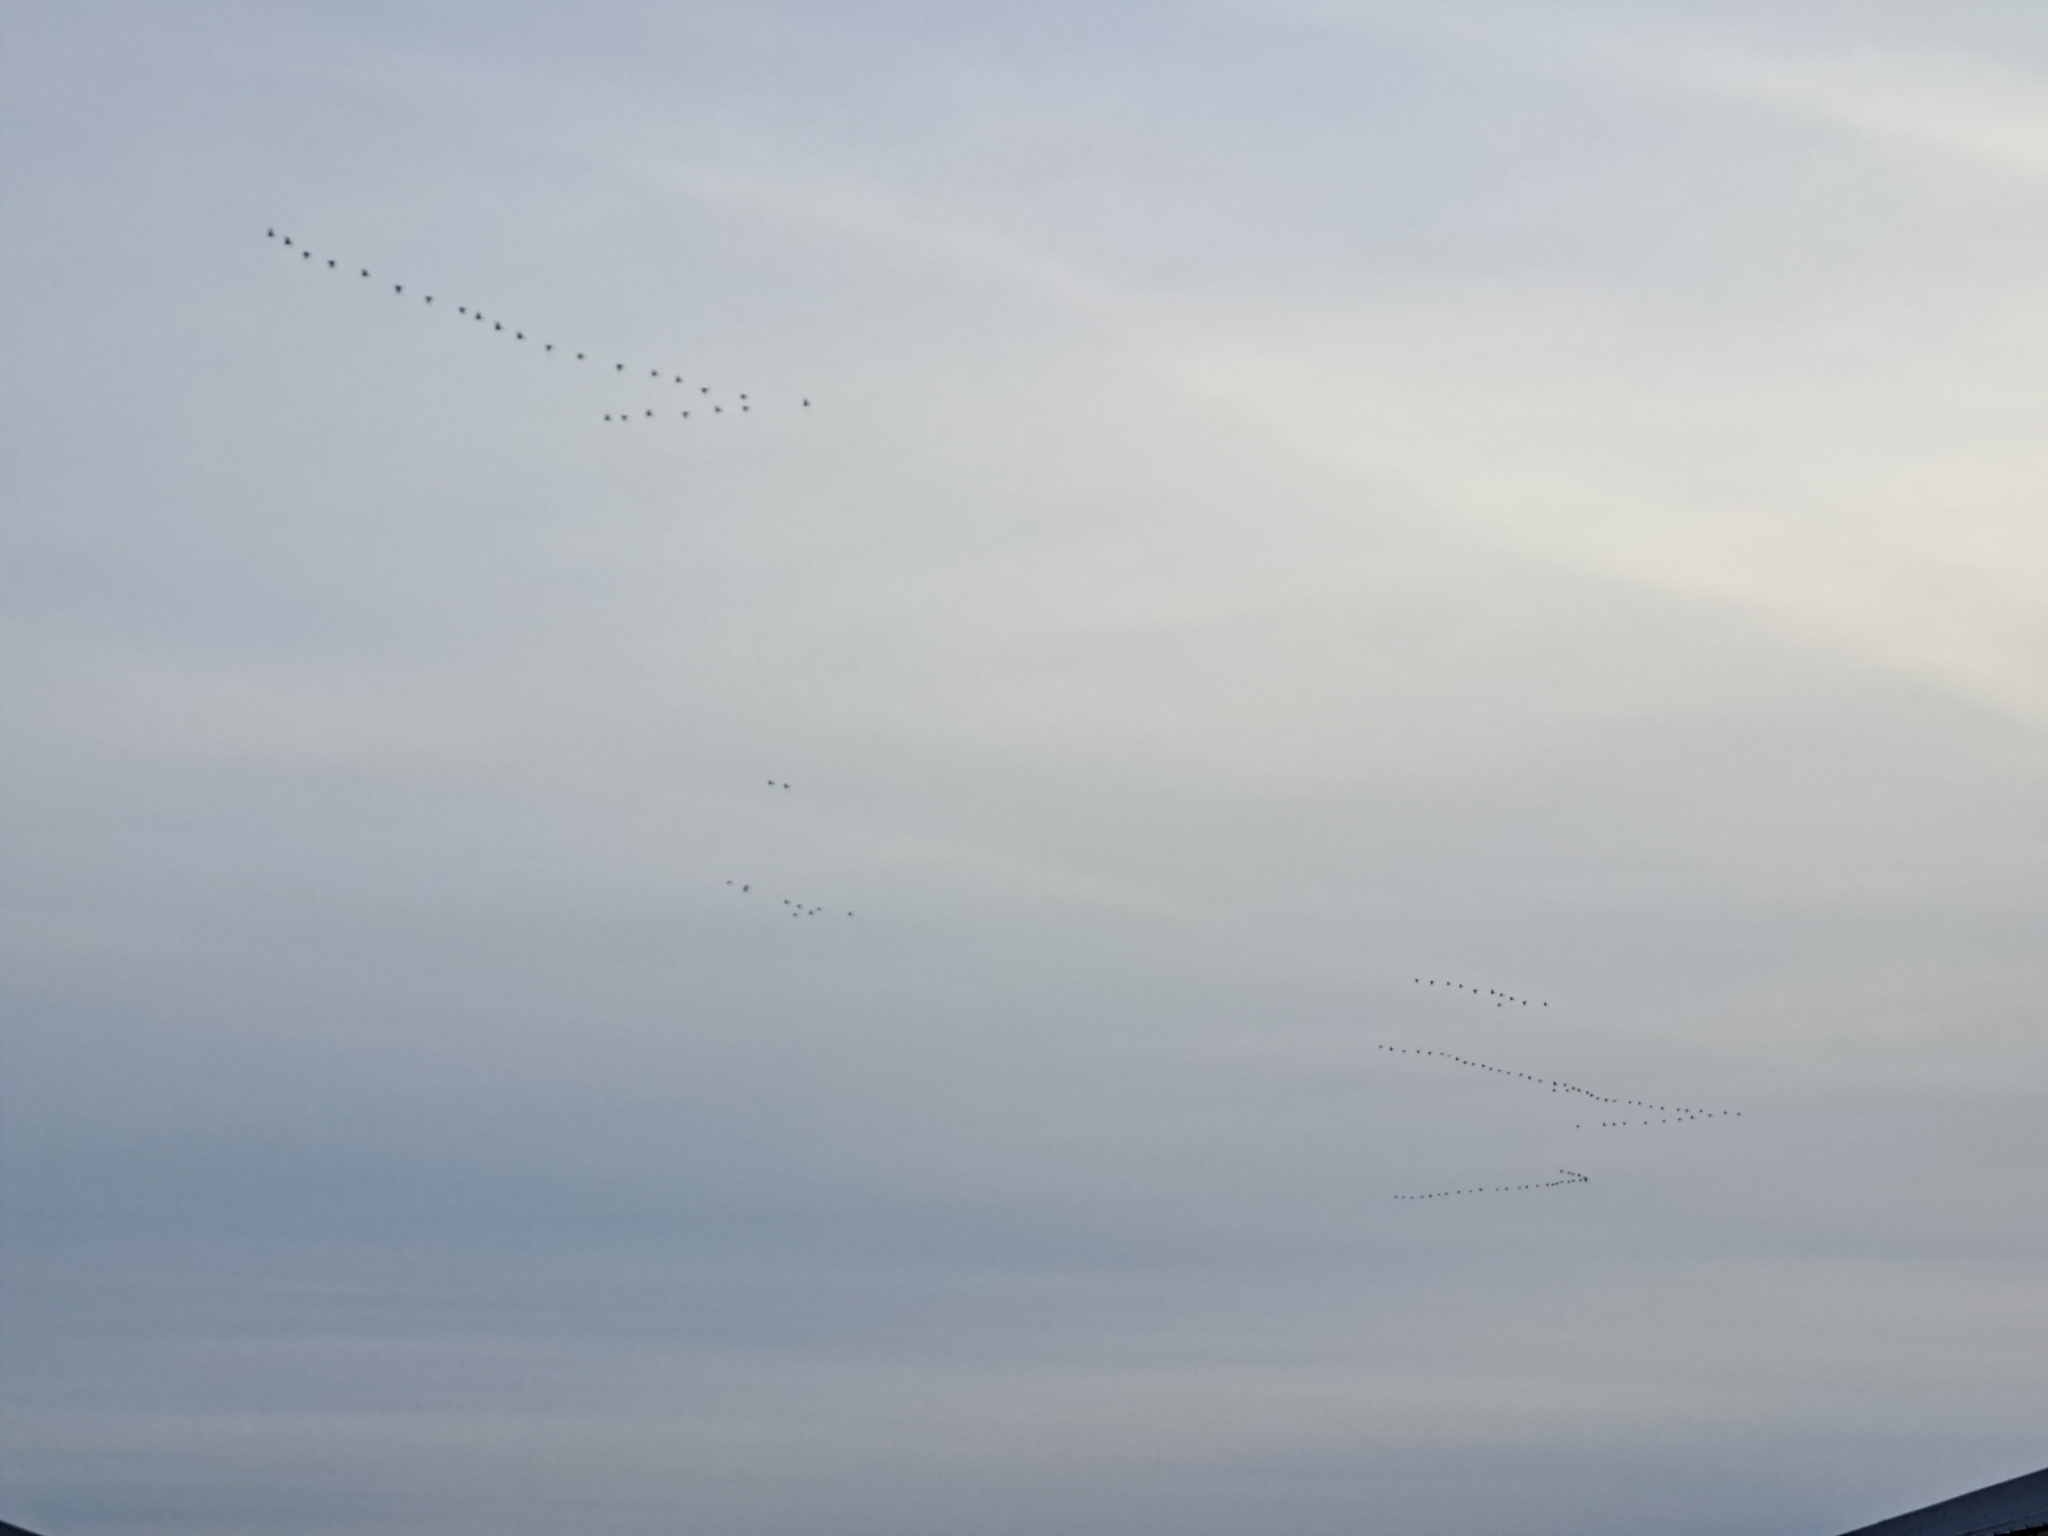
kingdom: Animalia
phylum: Chordata
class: Aves
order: Anseriformes
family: Anatidae
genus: Branta
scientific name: Branta canadensis
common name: Canada goose
